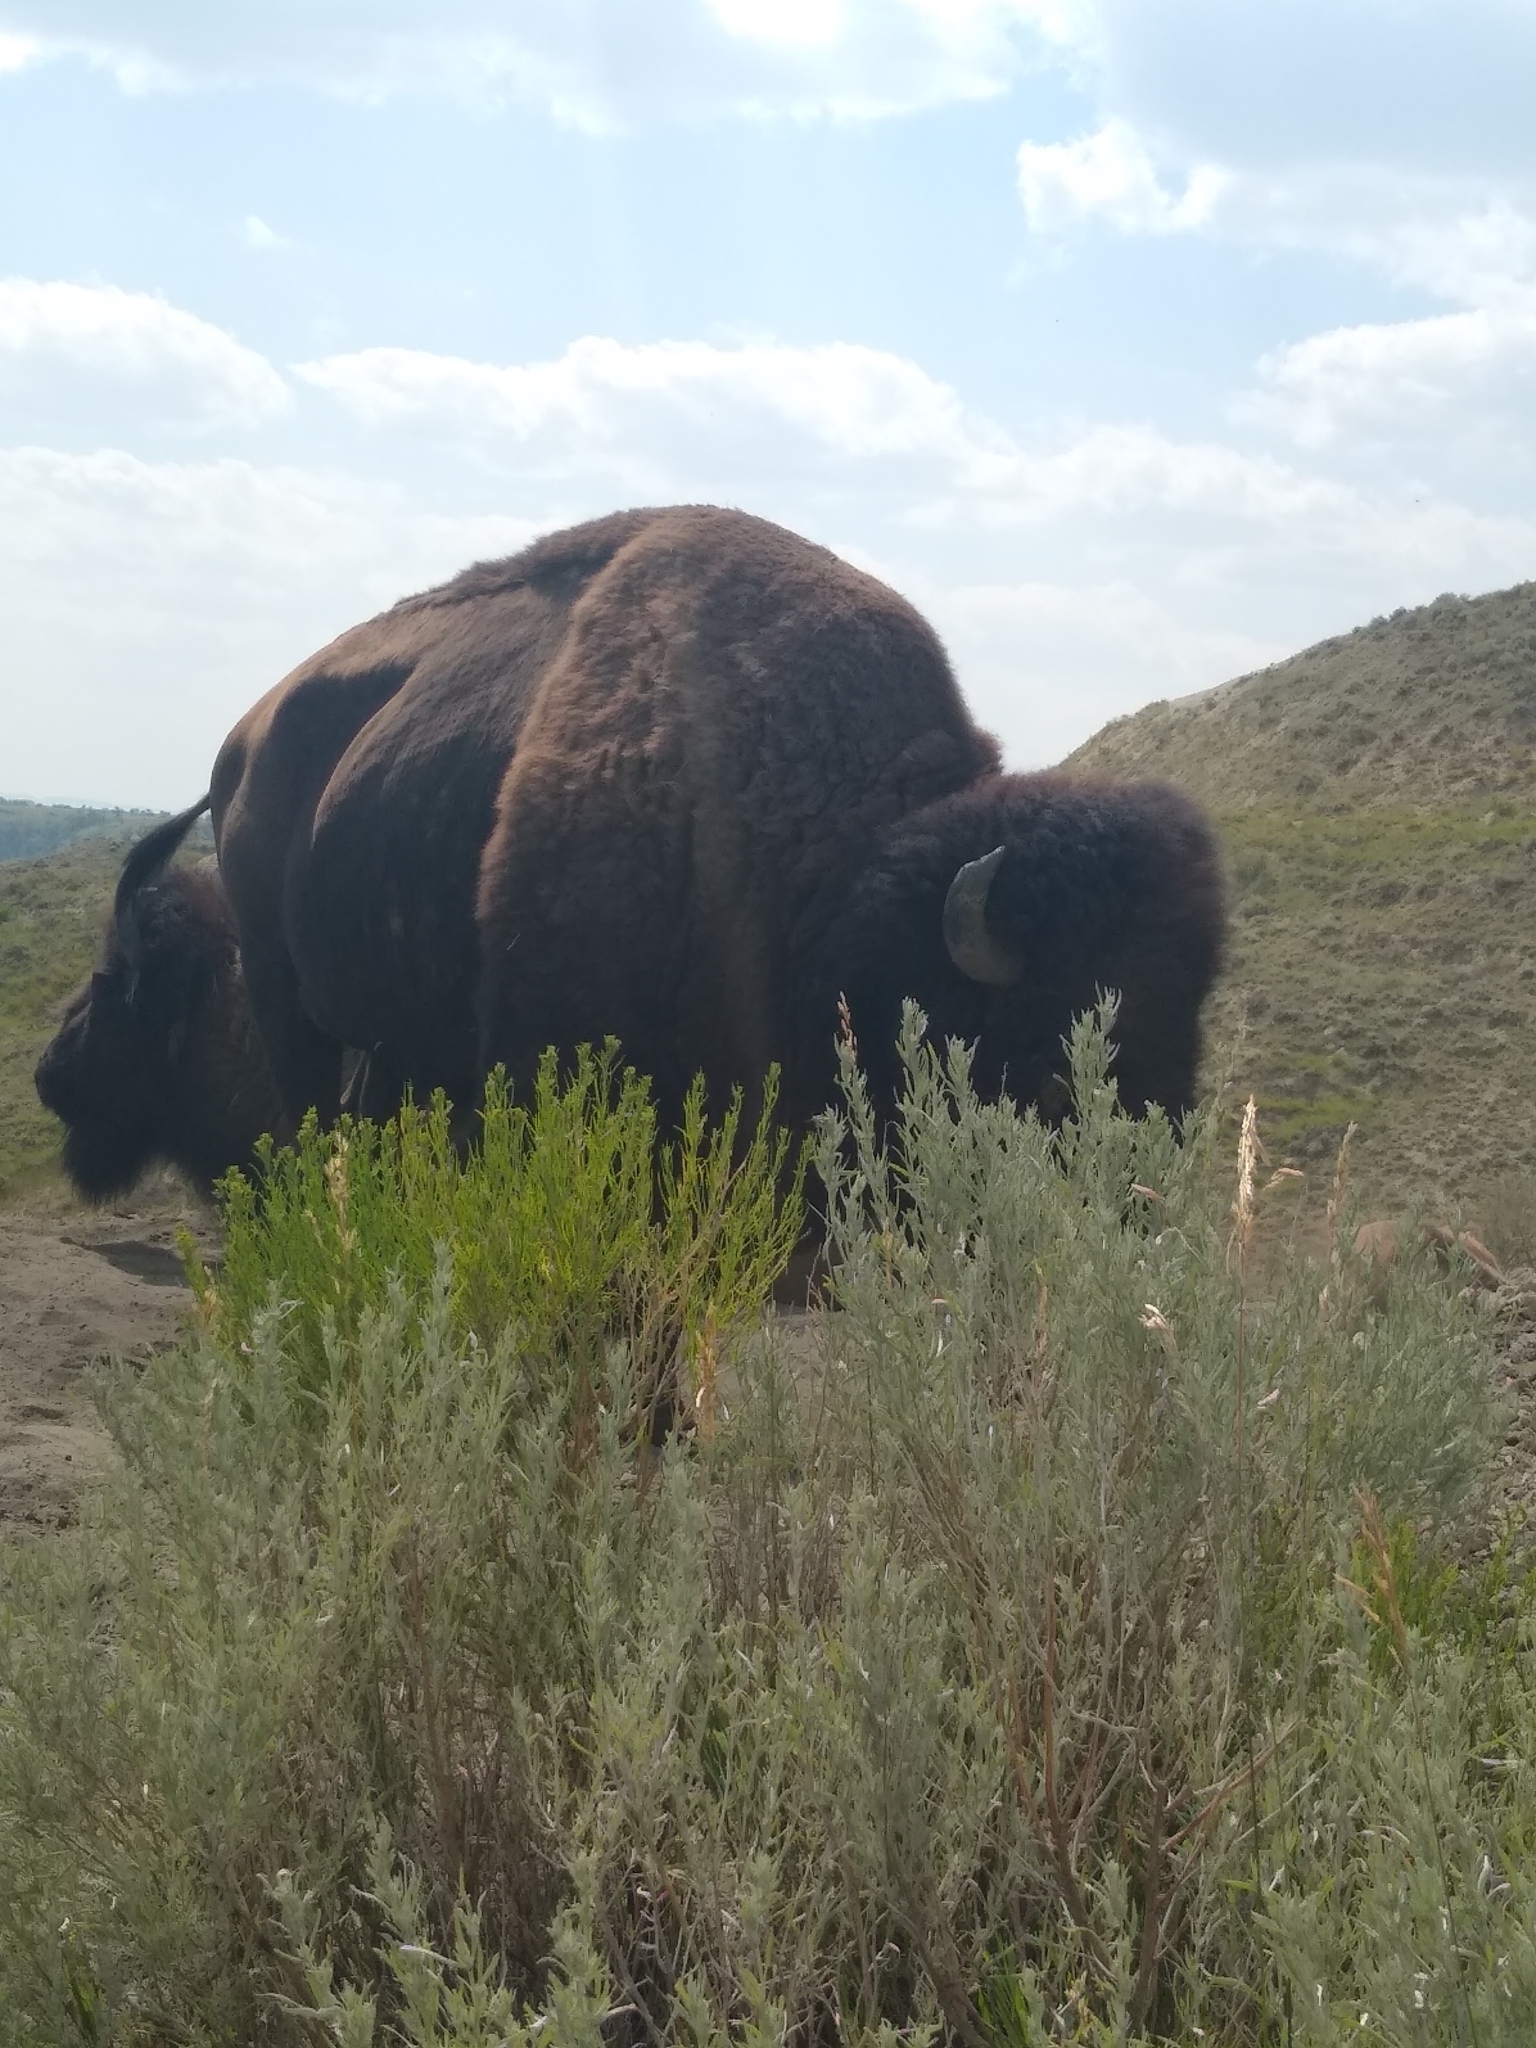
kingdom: Animalia
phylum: Chordata
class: Mammalia
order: Artiodactyla
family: Bovidae
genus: Bison
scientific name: Bison bison
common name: American bison
